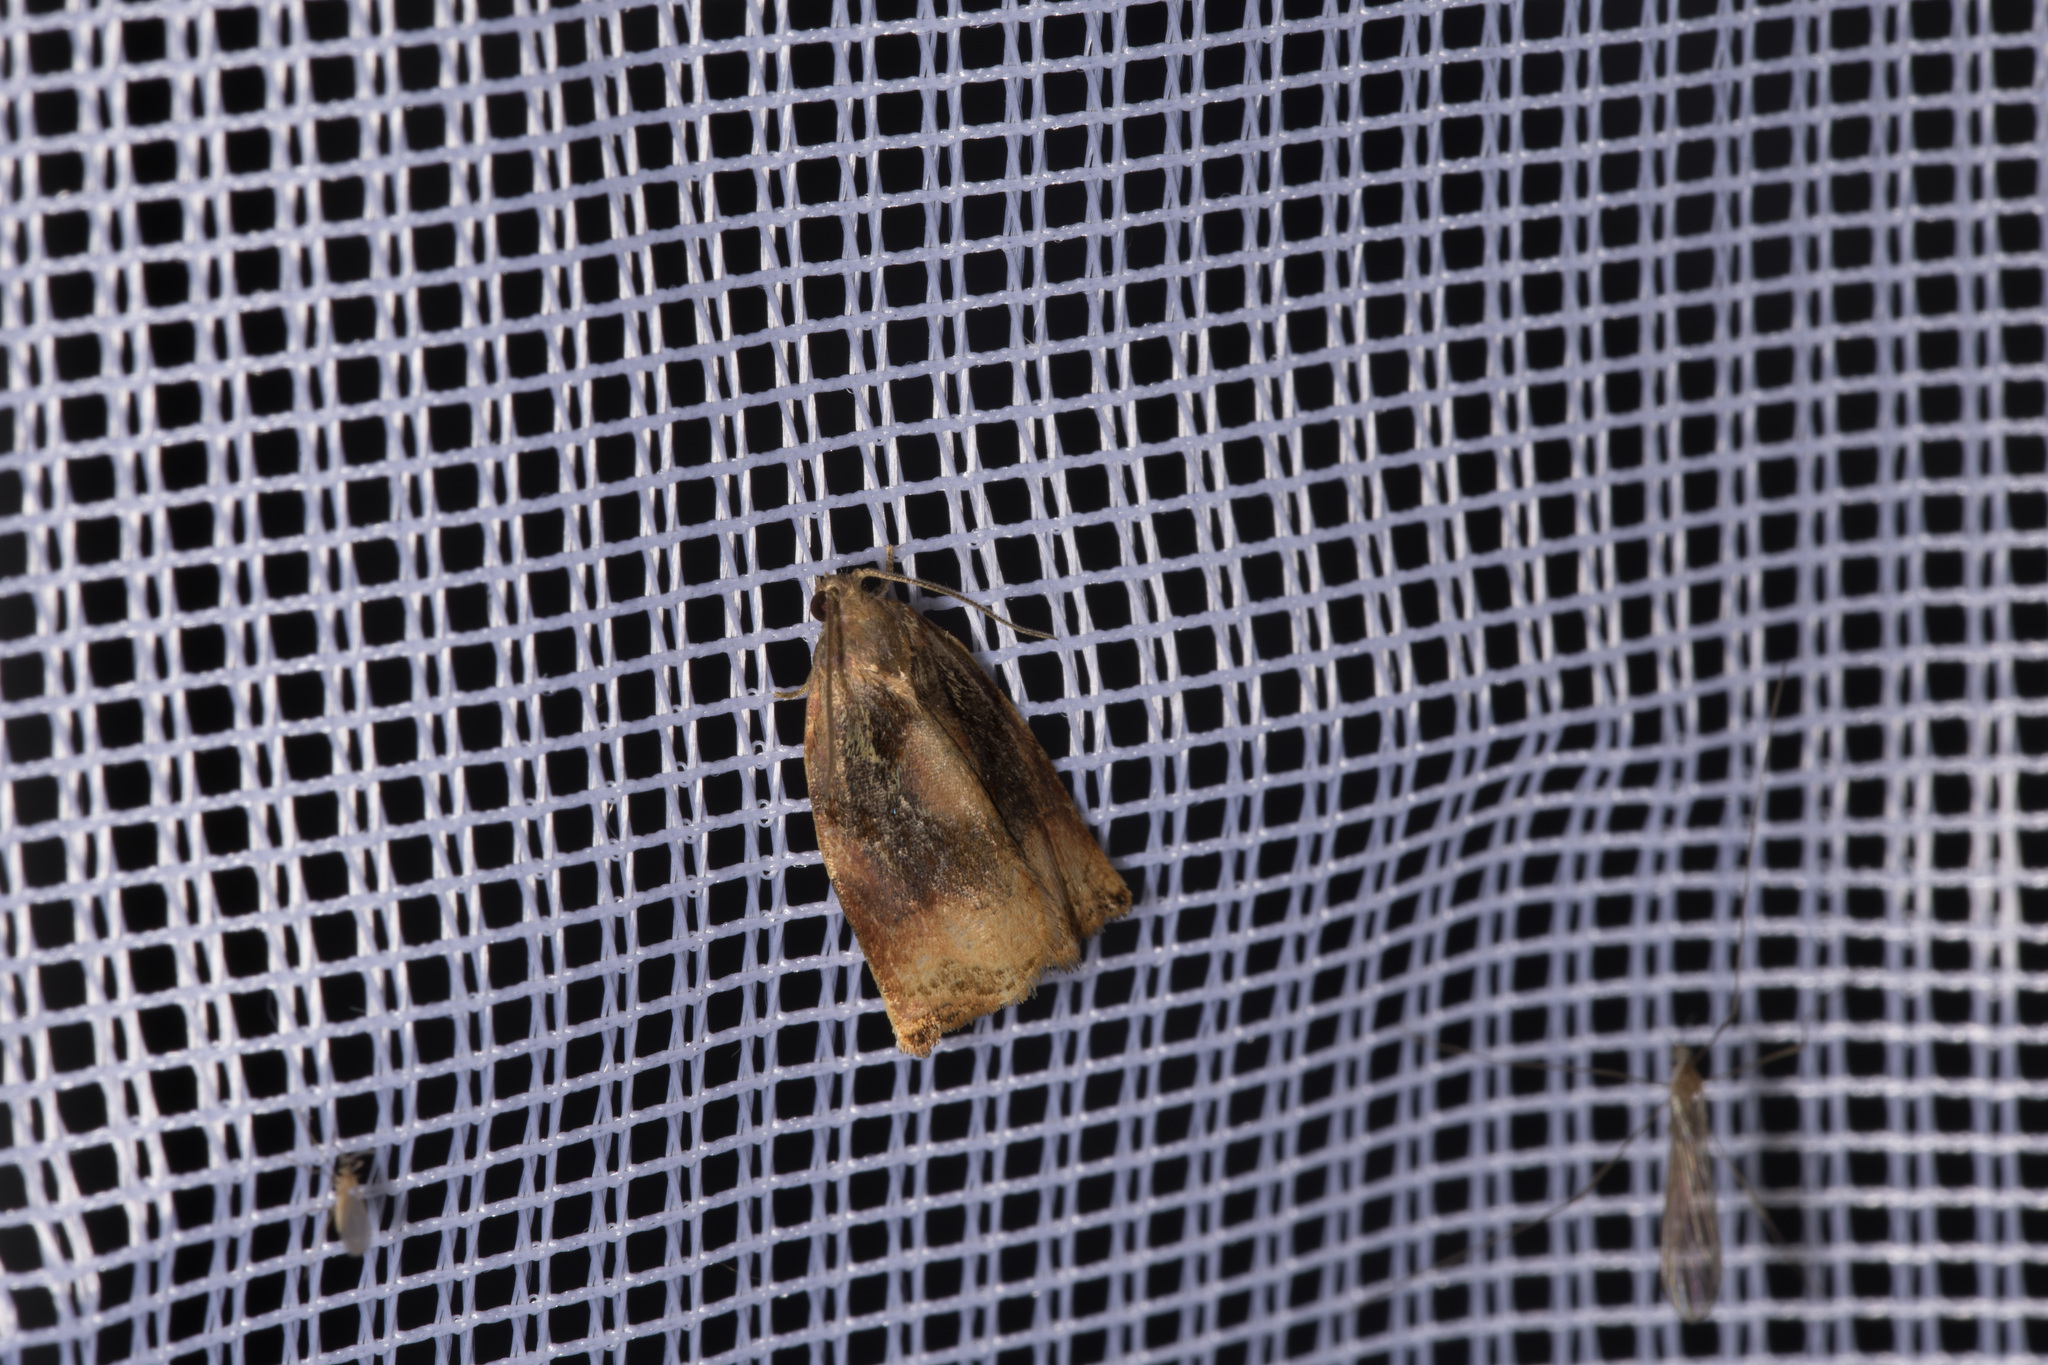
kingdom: Animalia
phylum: Arthropoda
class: Insecta
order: Lepidoptera
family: Tortricidae
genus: Archips
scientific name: Archips podana
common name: Large fruit-tree tortrix
